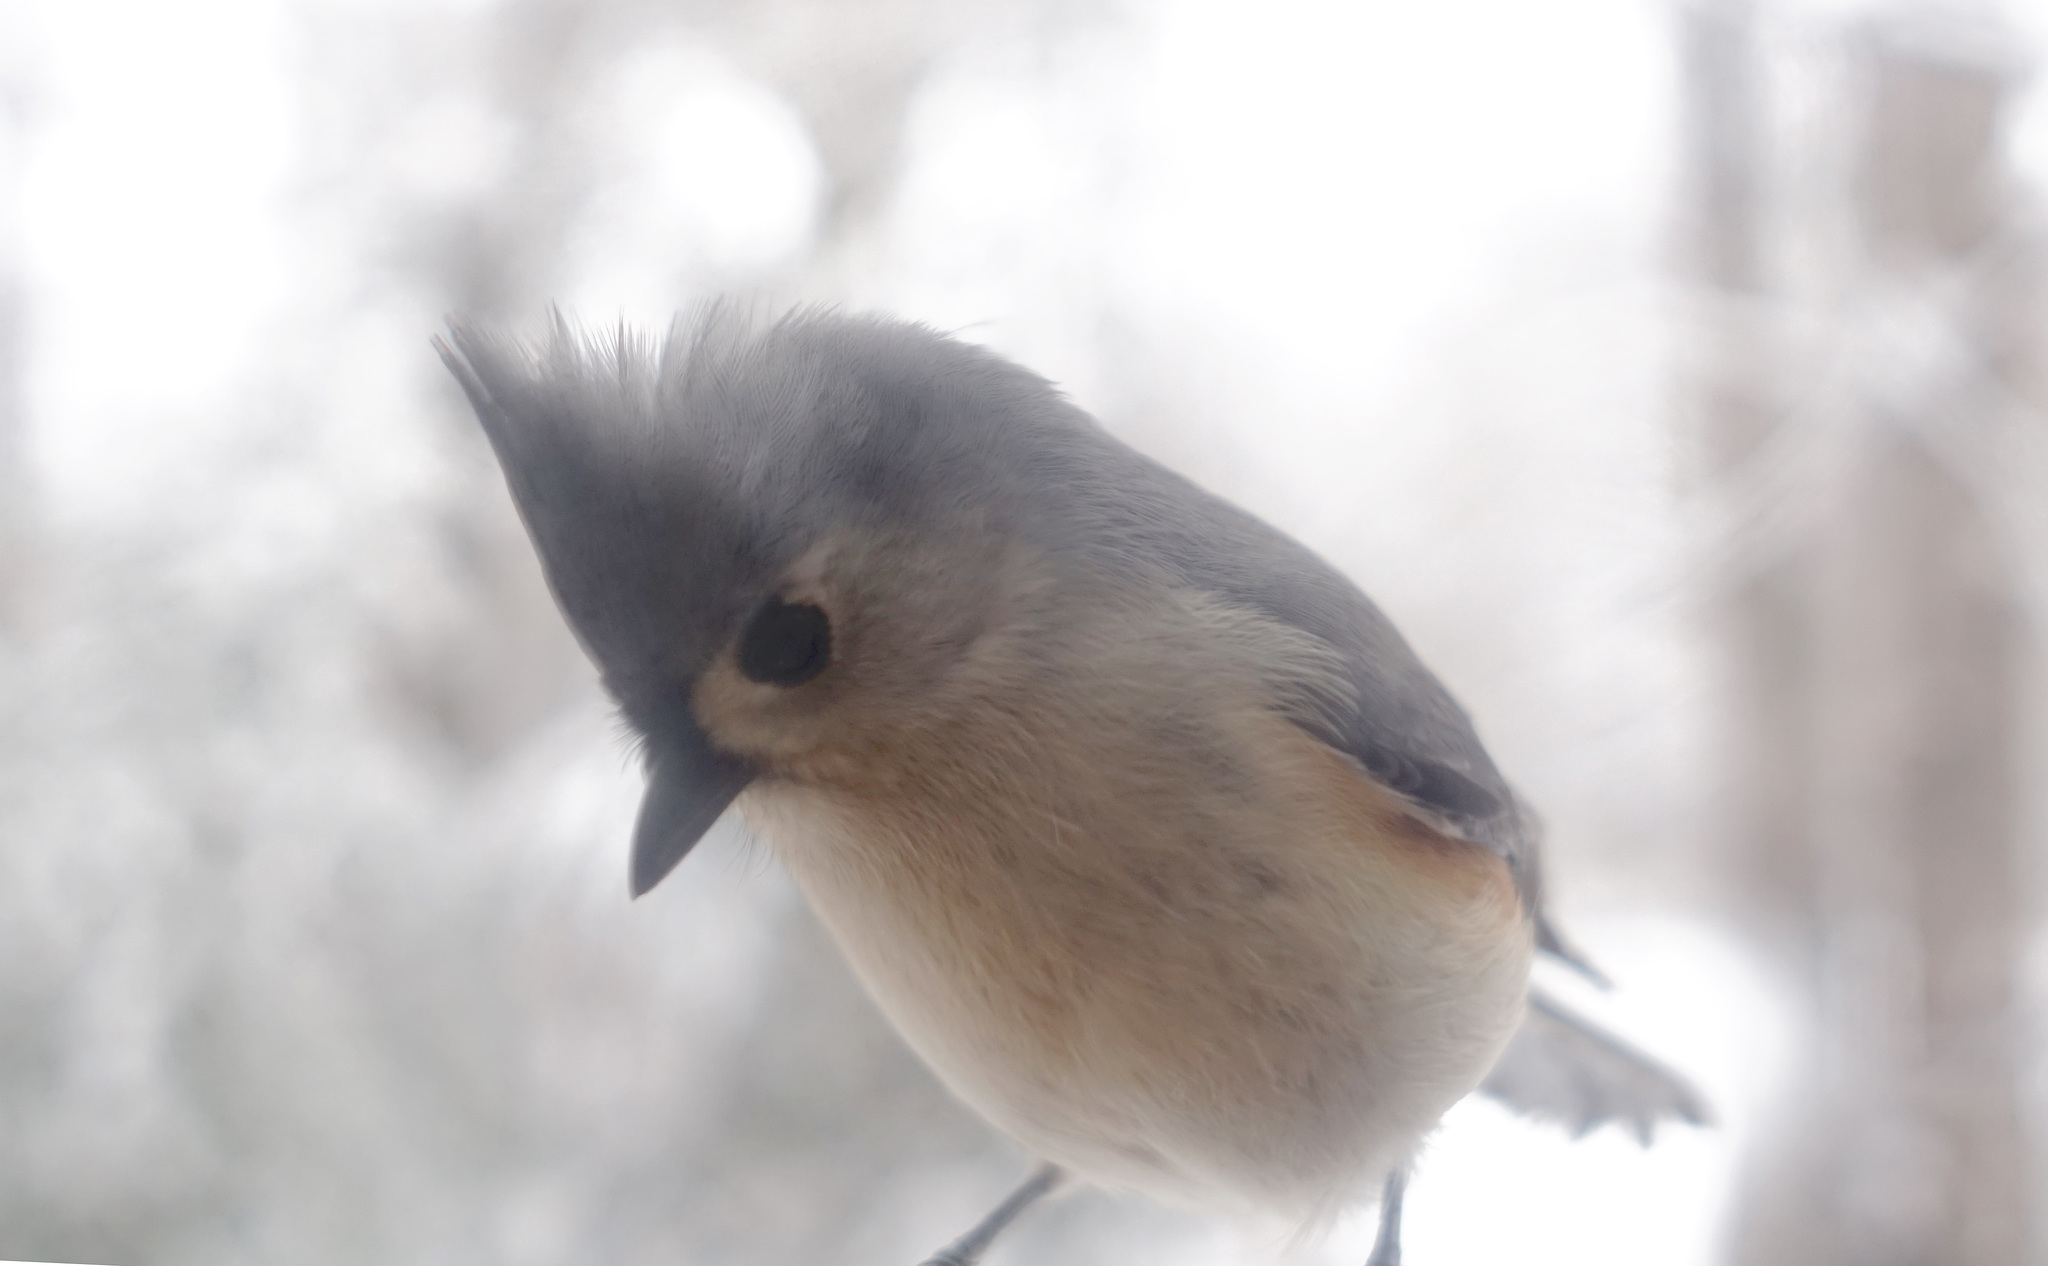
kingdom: Animalia
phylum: Chordata
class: Aves
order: Passeriformes
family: Paridae
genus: Baeolophus
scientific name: Baeolophus bicolor
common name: Tufted titmouse
